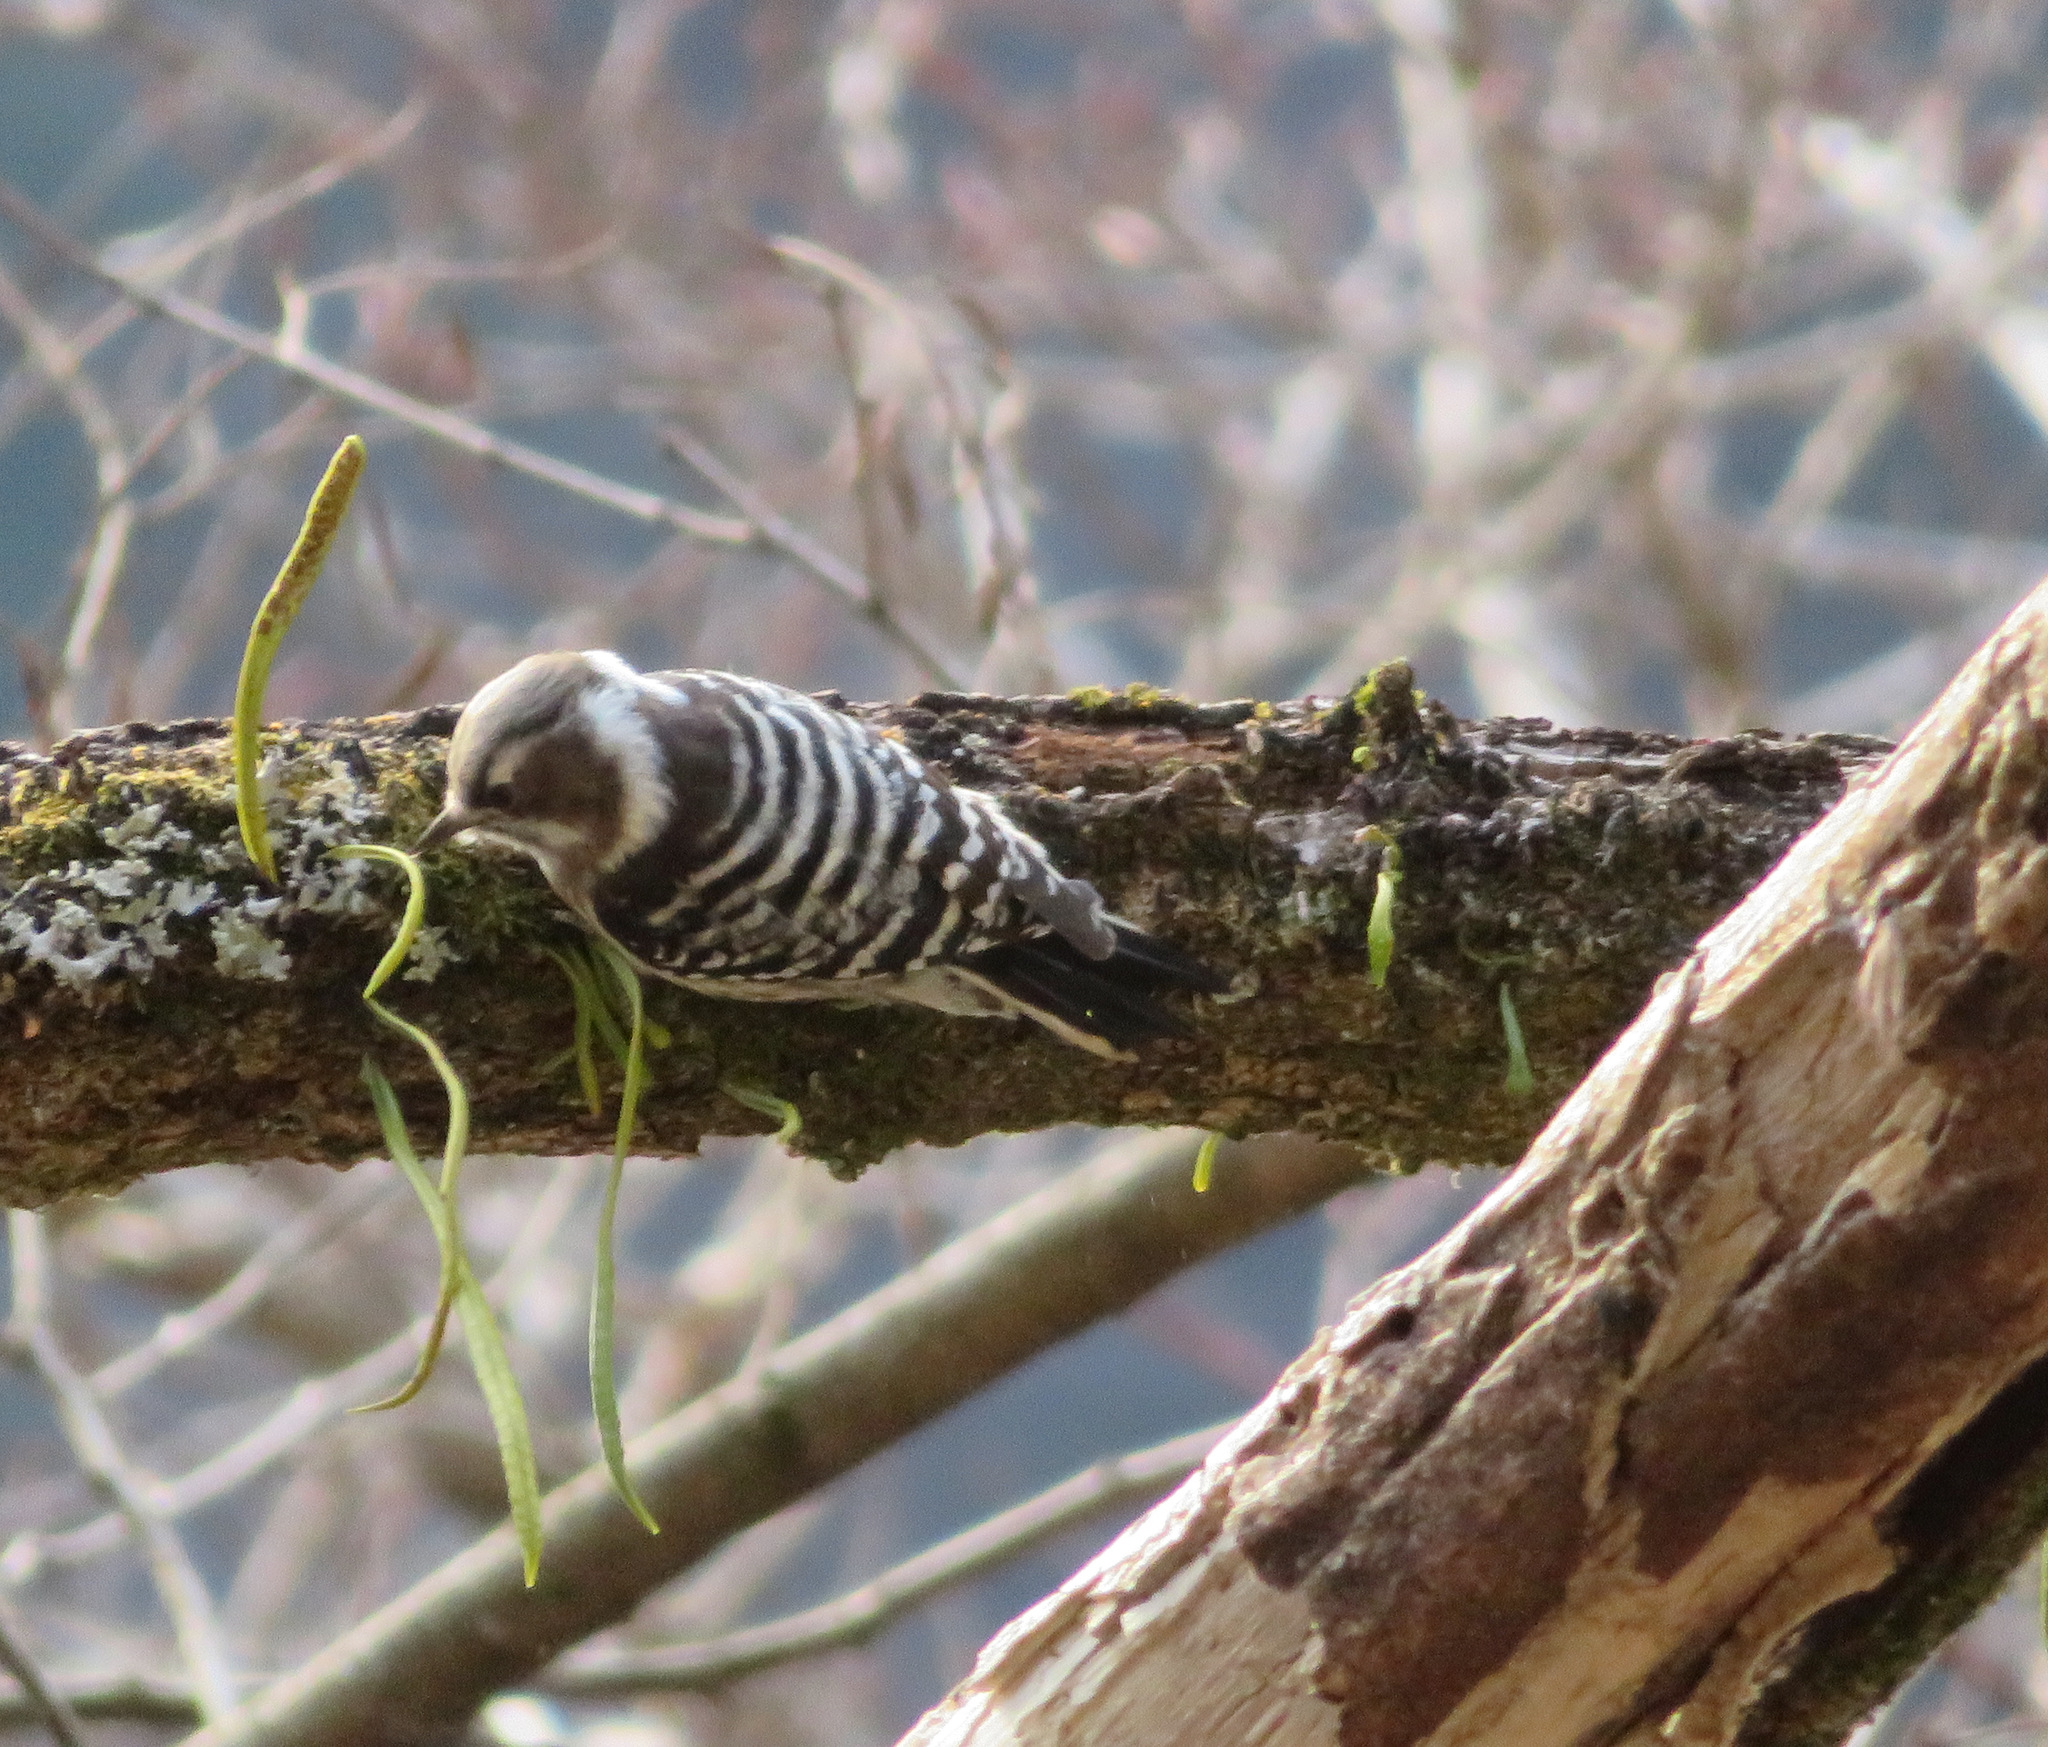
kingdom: Animalia
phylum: Chordata
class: Aves
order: Piciformes
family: Picidae
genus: Yungipicus
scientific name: Yungipicus kizuki
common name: Japanese pygmy woodpecker
